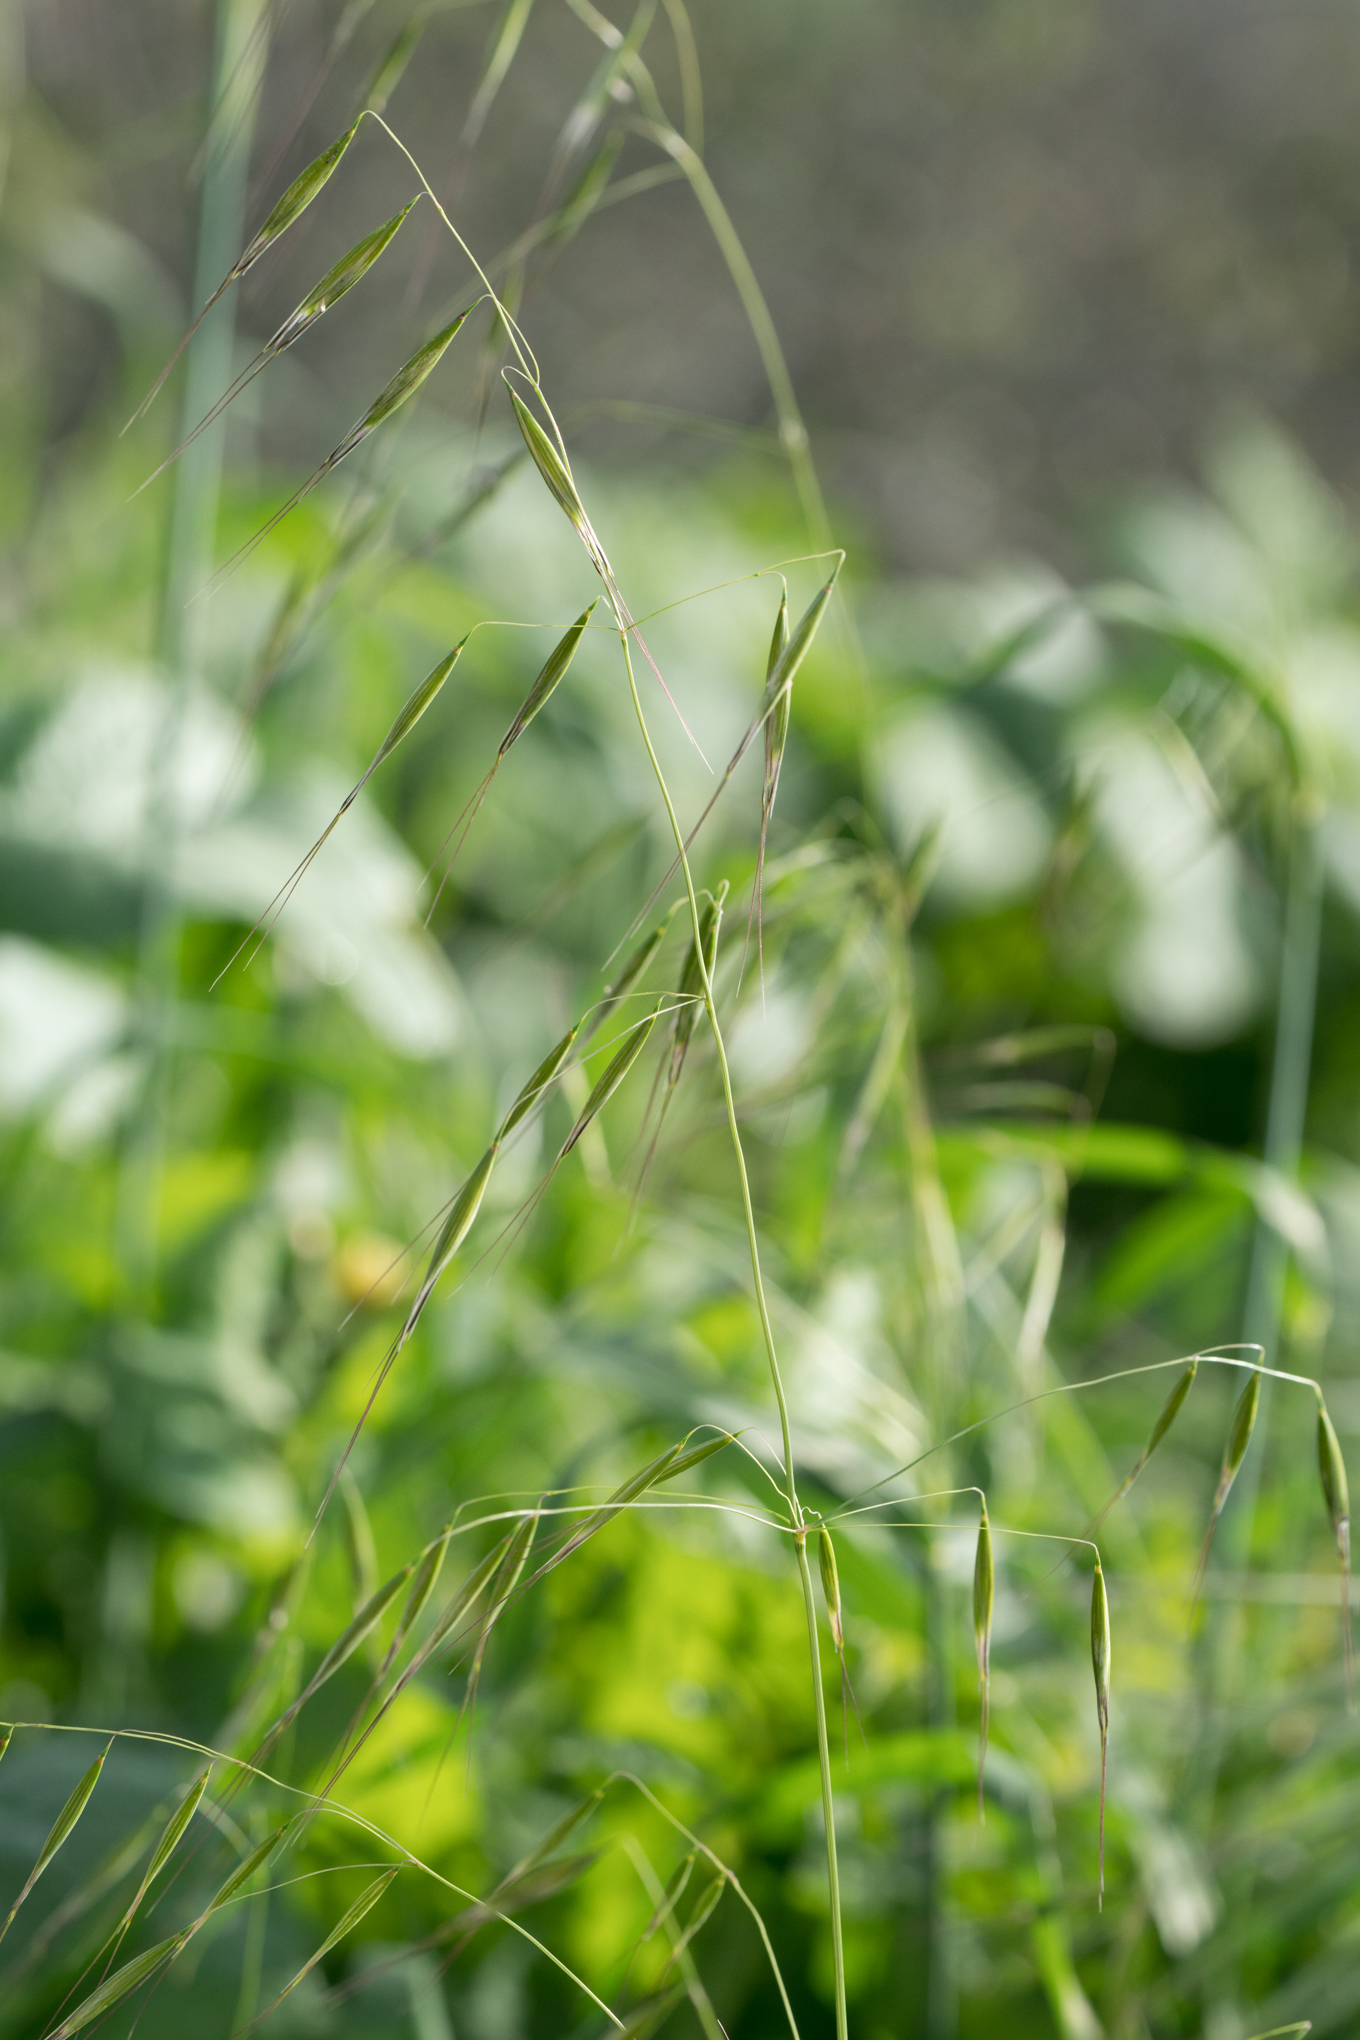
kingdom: Plantae
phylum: Tracheophyta
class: Liliopsida
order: Poales
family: Poaceae
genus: Avena
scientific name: Avena barbata
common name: Slender oat
